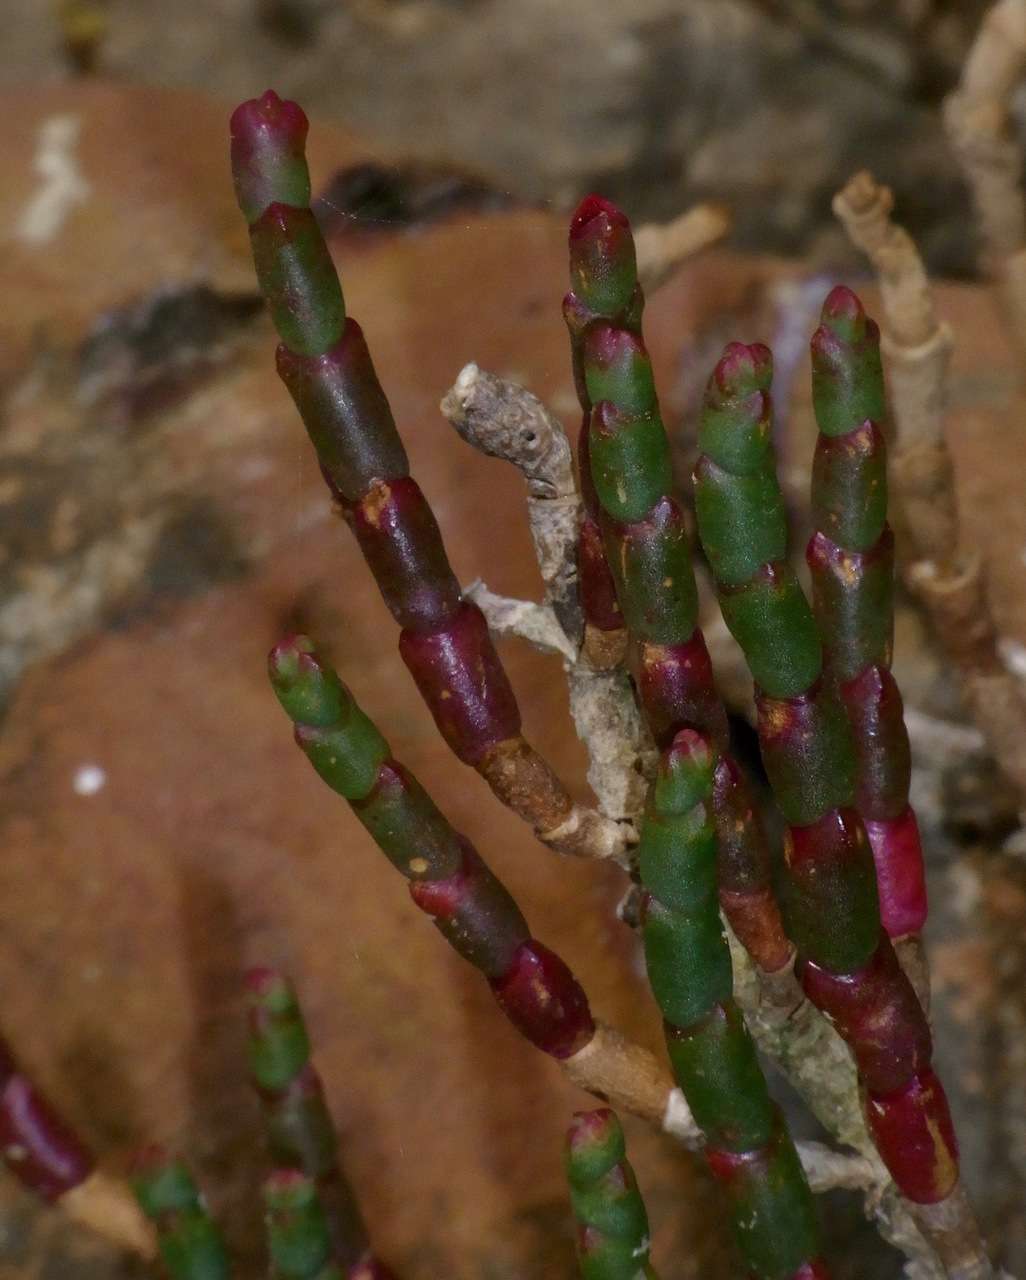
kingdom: Plantae
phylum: Tracheophyta
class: Magnoliopsida
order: Caryophyllales
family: Amaranthaceae
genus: Salicornia
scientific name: Salicornia quinqueflora
